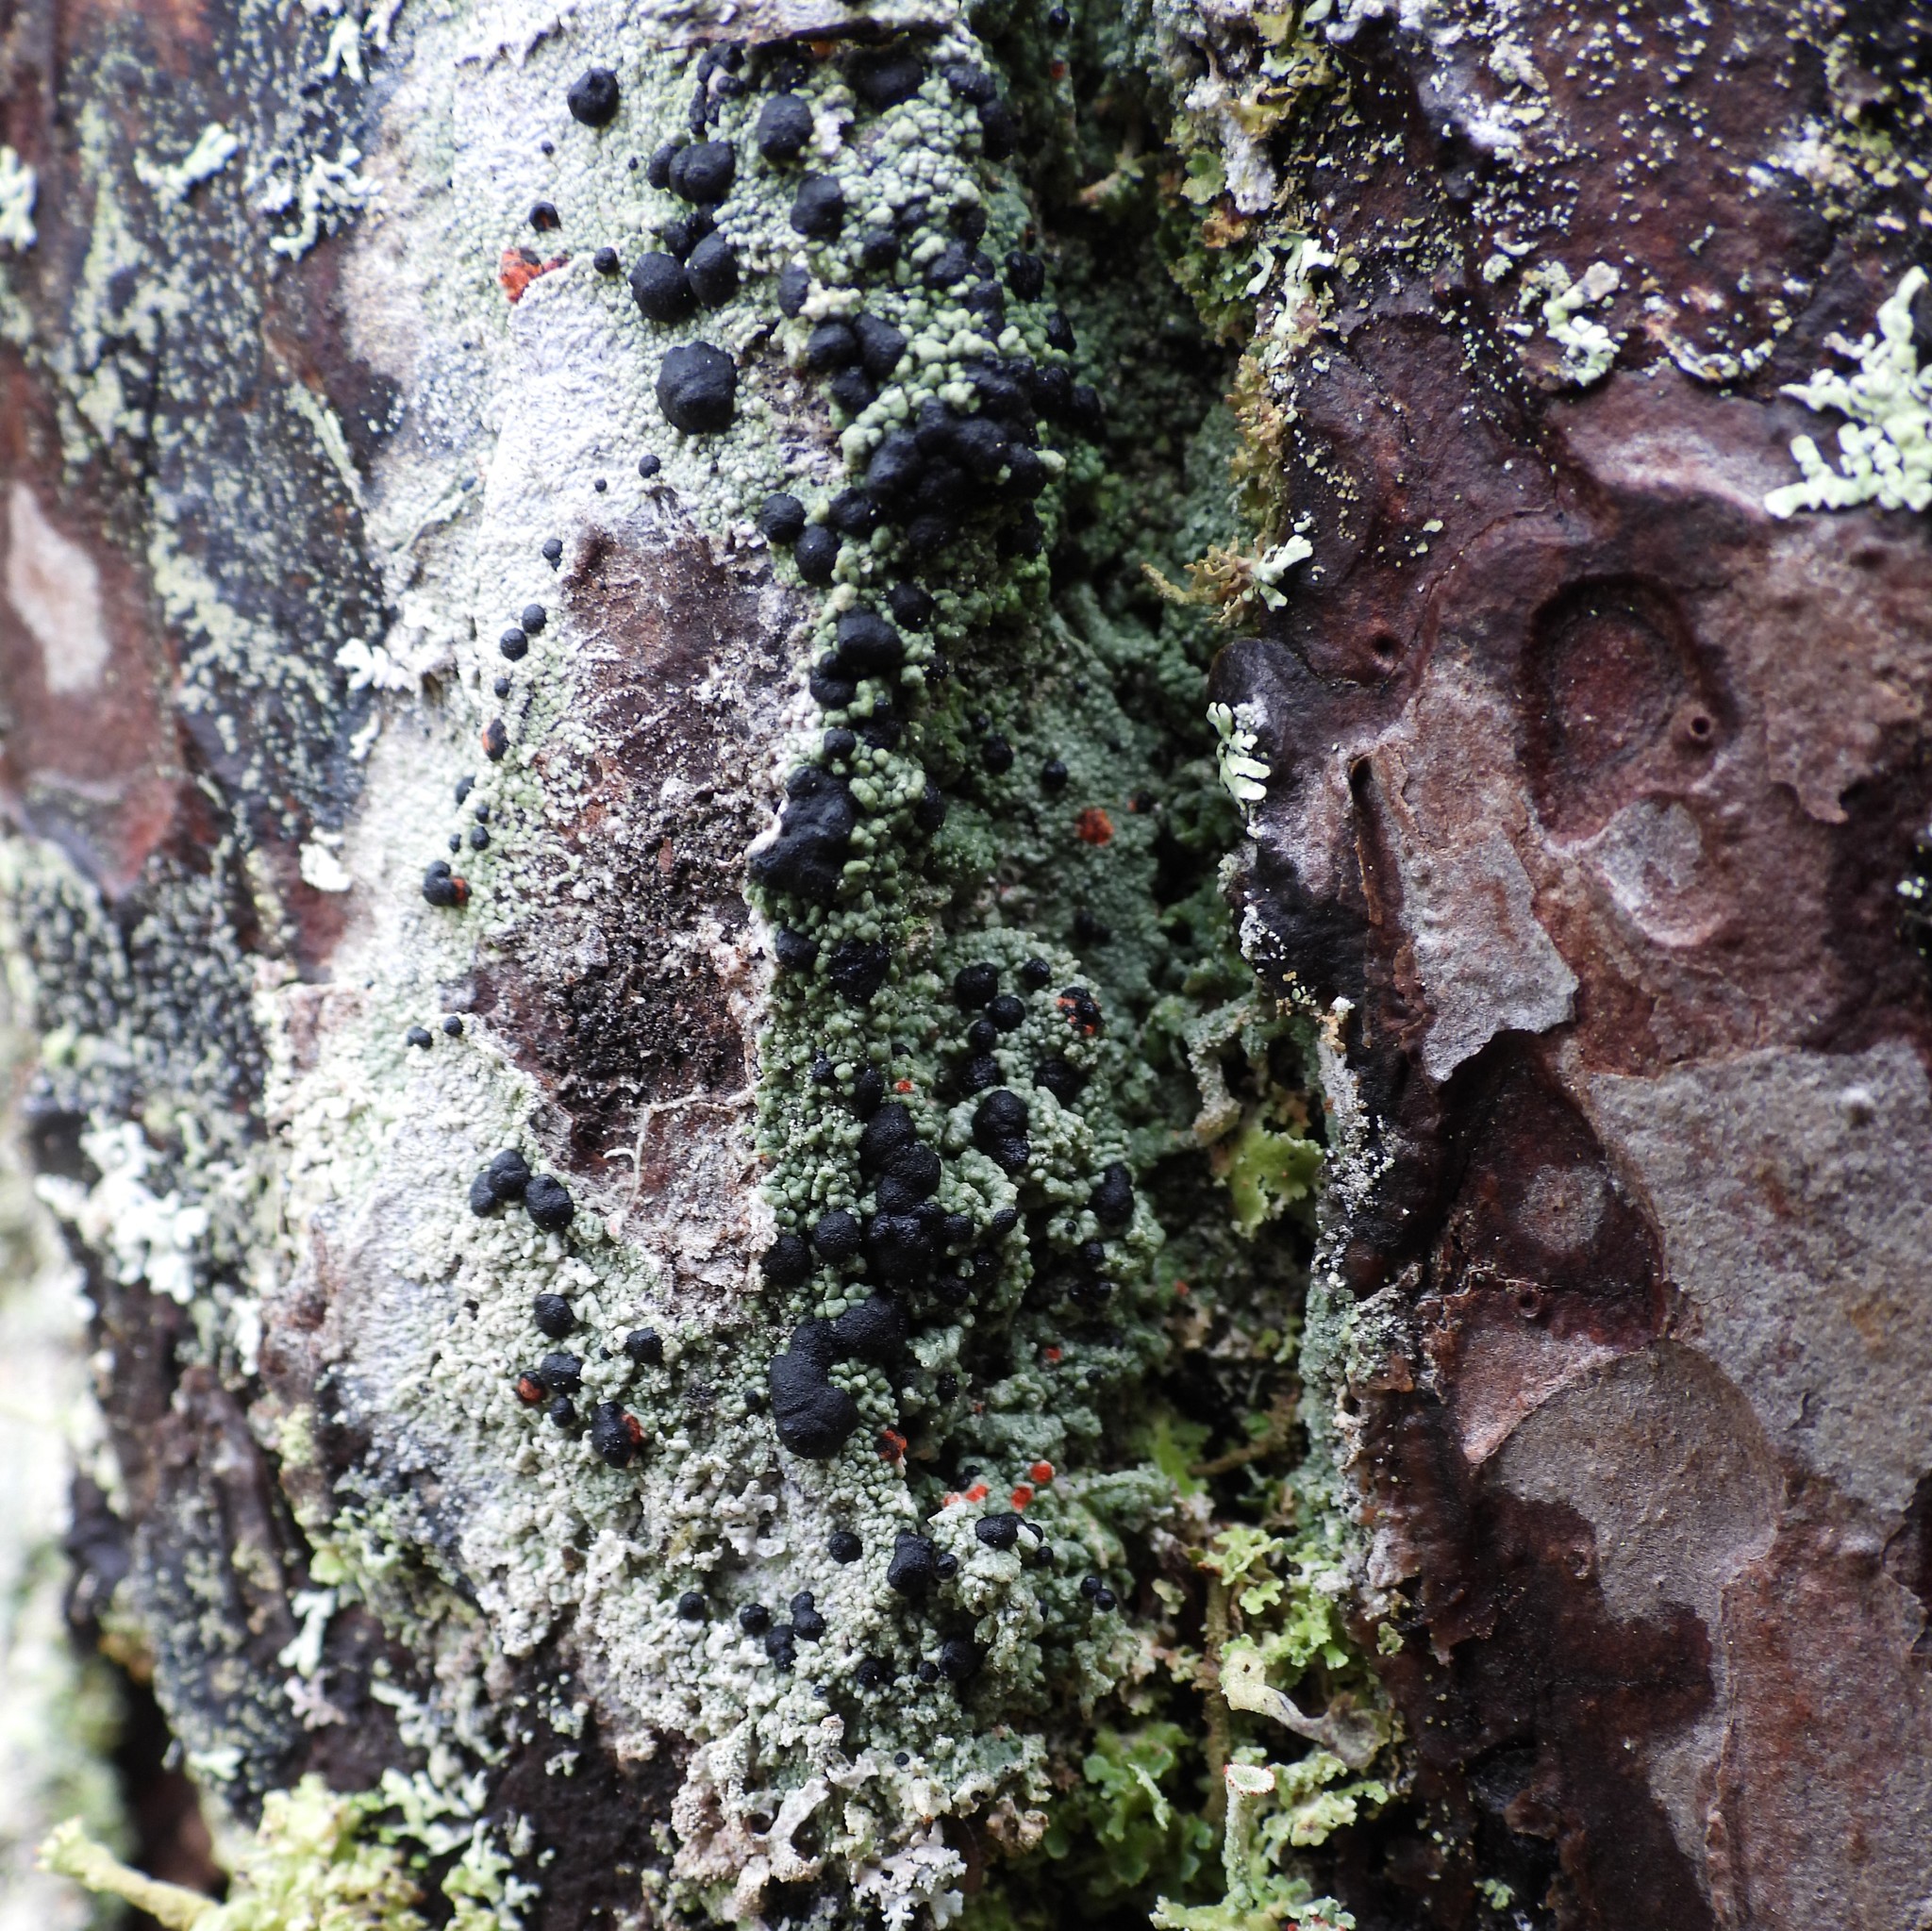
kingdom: Fungi
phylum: Ascomycota
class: Lecanoromycetes
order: Lecanorales
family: Tephromelataceae
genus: Mycoblastus
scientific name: Mycoblastus sanguinarius
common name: Bloody-heart lichen
